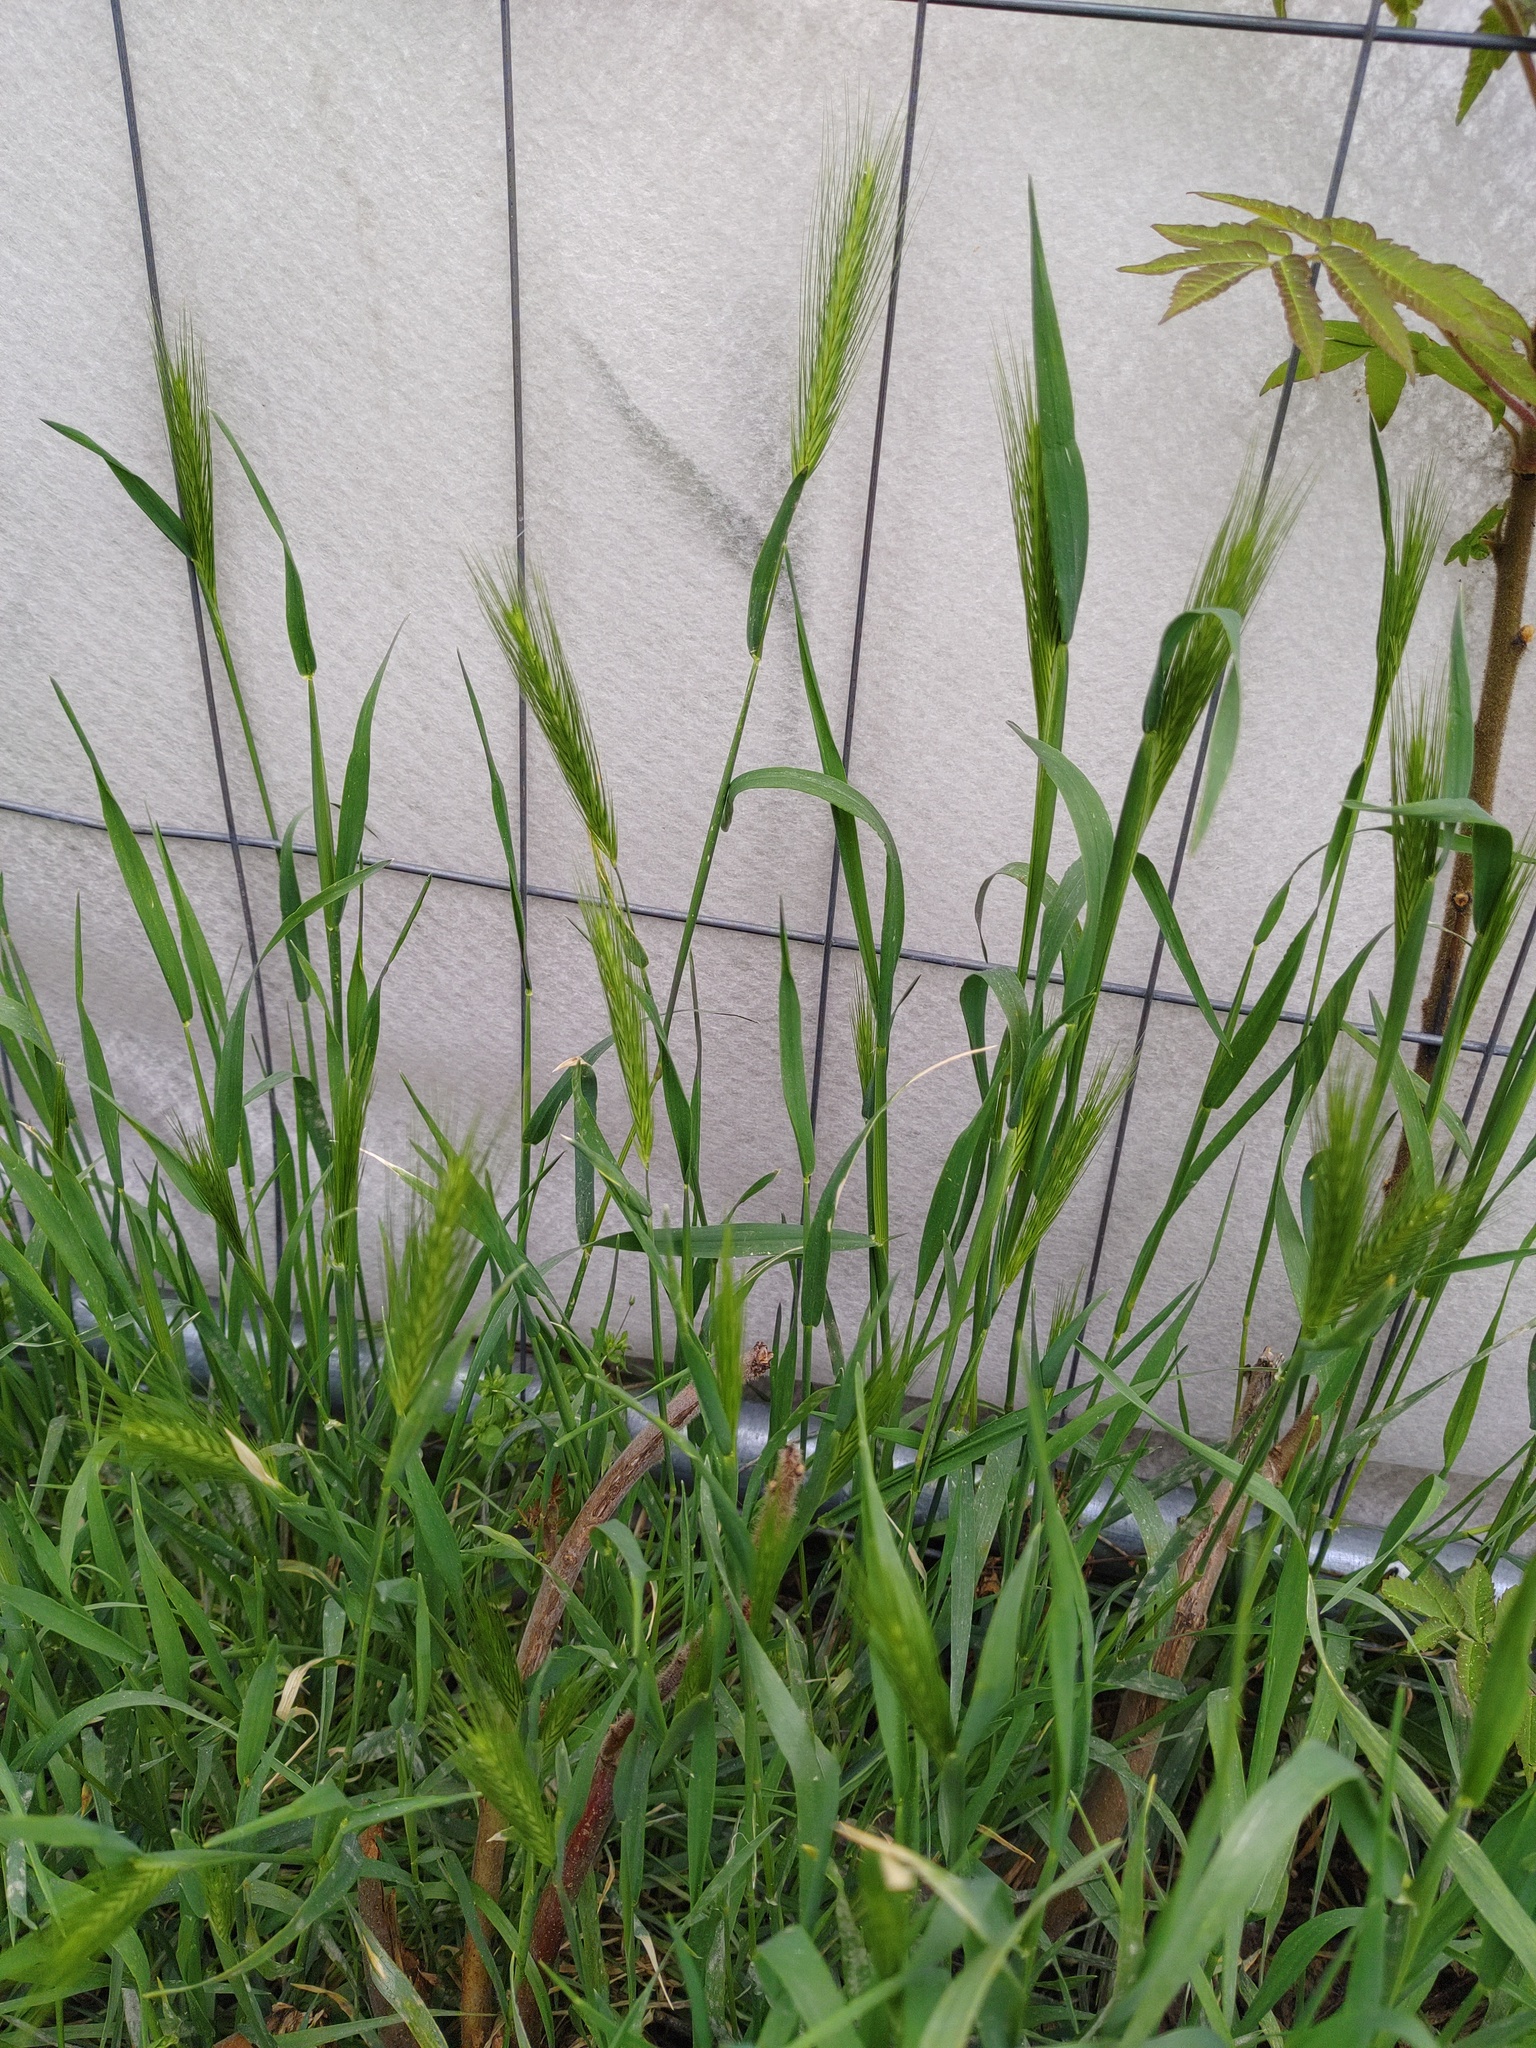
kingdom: Plantae
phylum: Tracheophyta
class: Liliopsida
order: Poales
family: Poaceae
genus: Hordeum
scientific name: Hordeum murinum
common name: Wall barley
